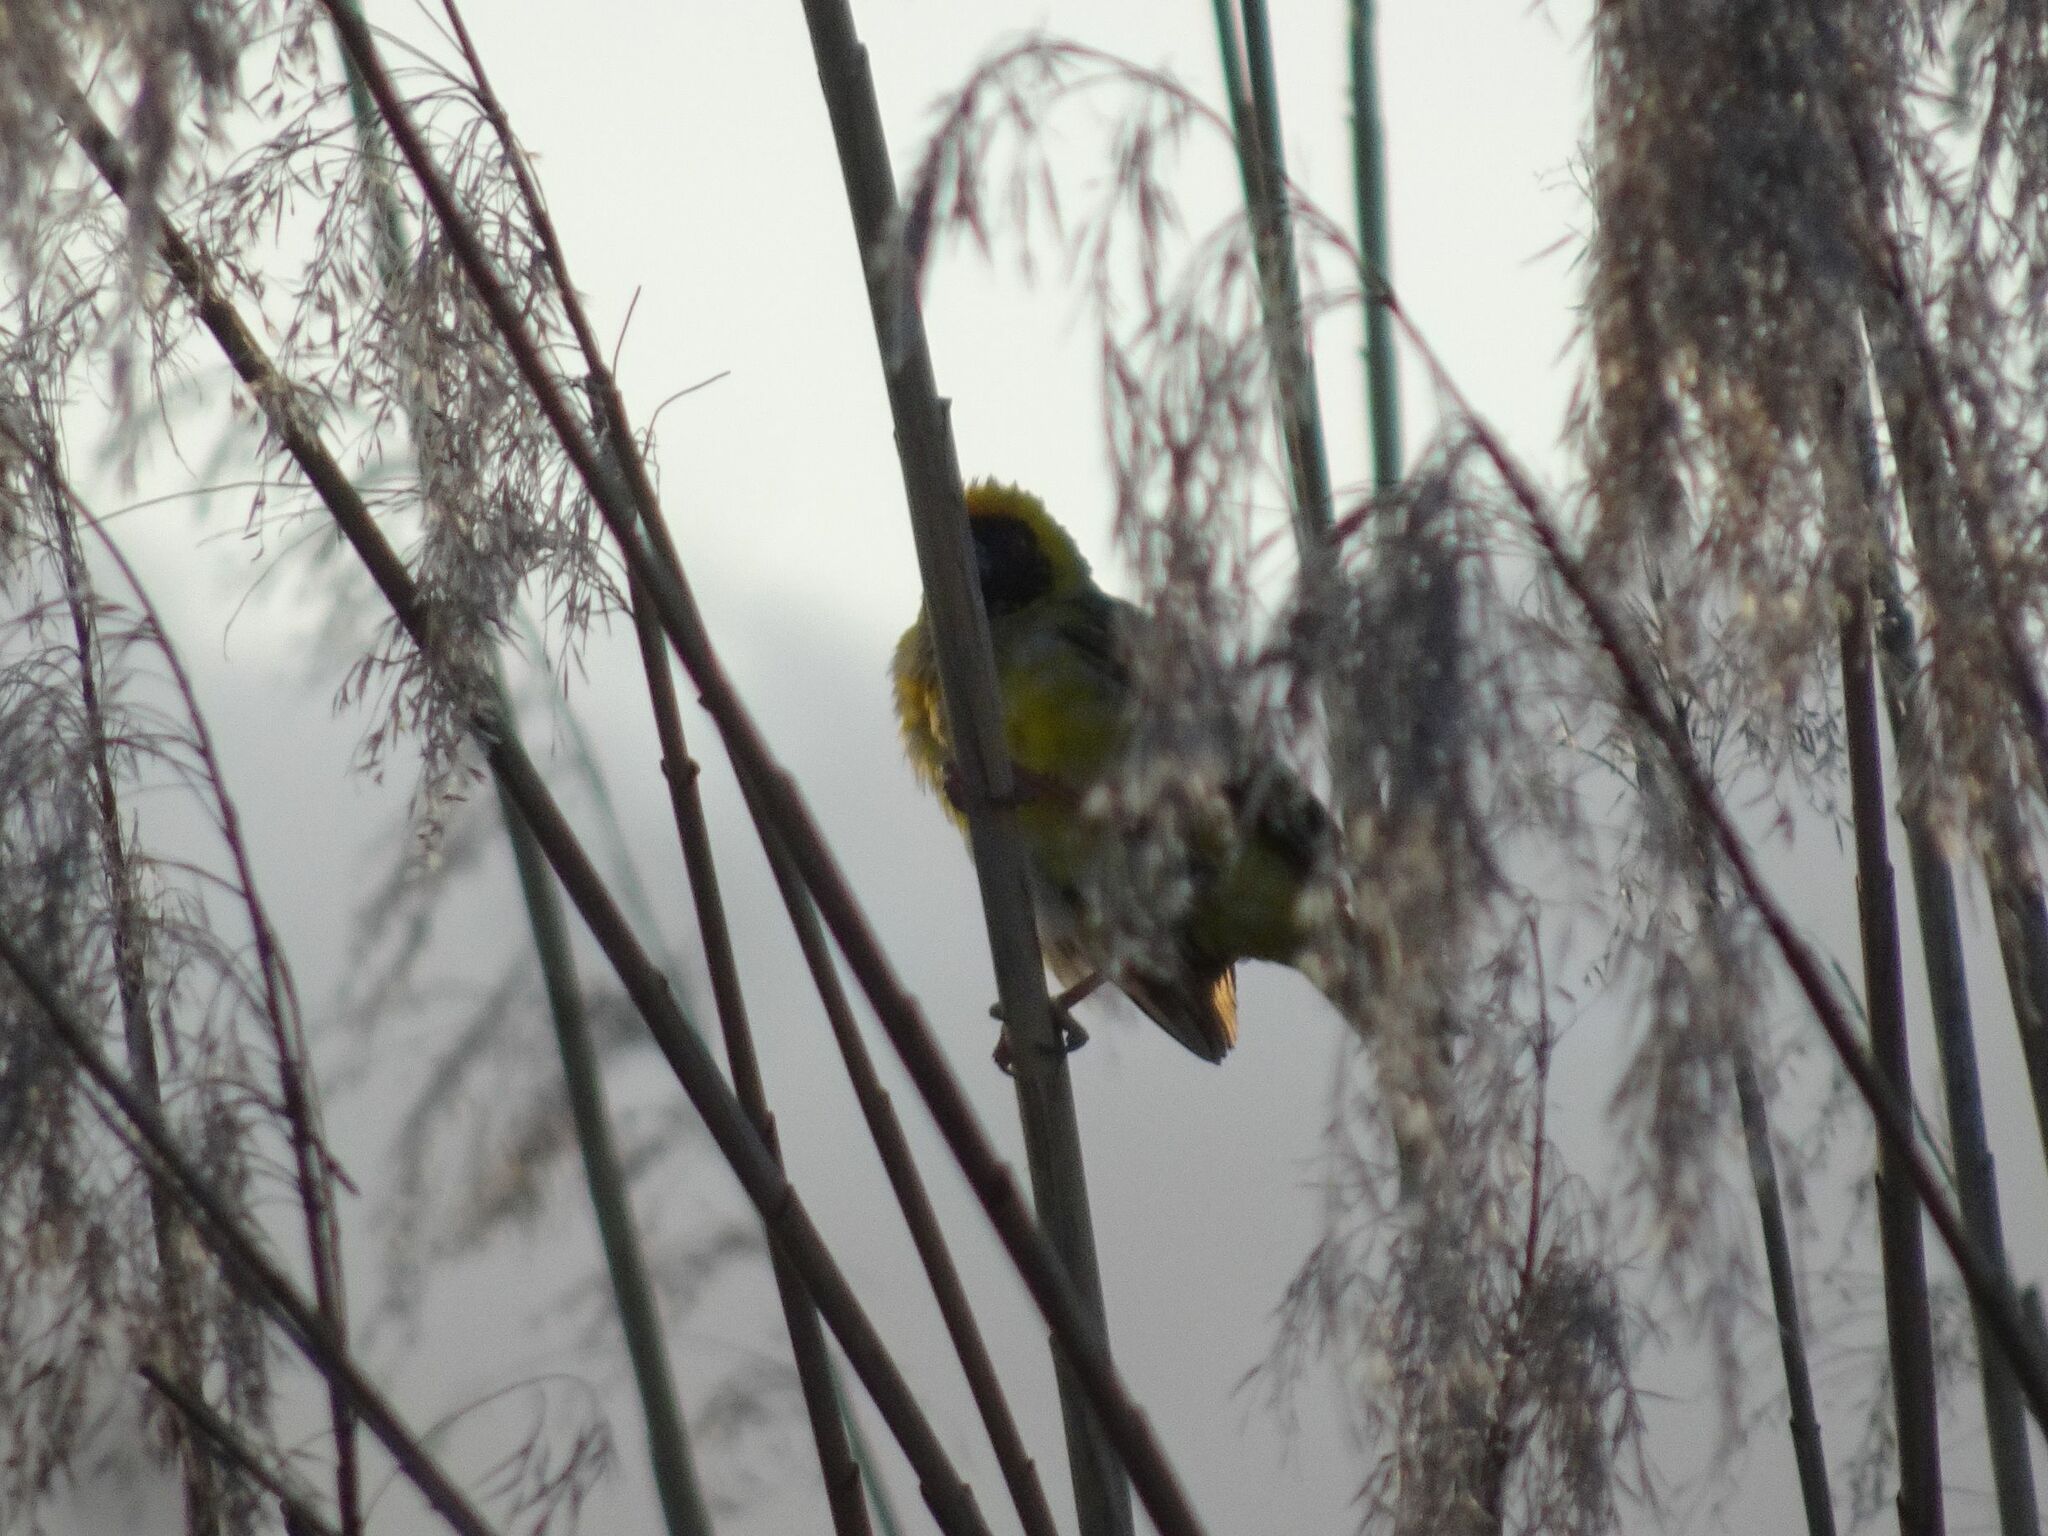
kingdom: Animalia
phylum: Chordata
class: Aves
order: Passeriformes
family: Ploceidae
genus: Ploceus
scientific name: Ploceus velatus
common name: Southern masked weaver
